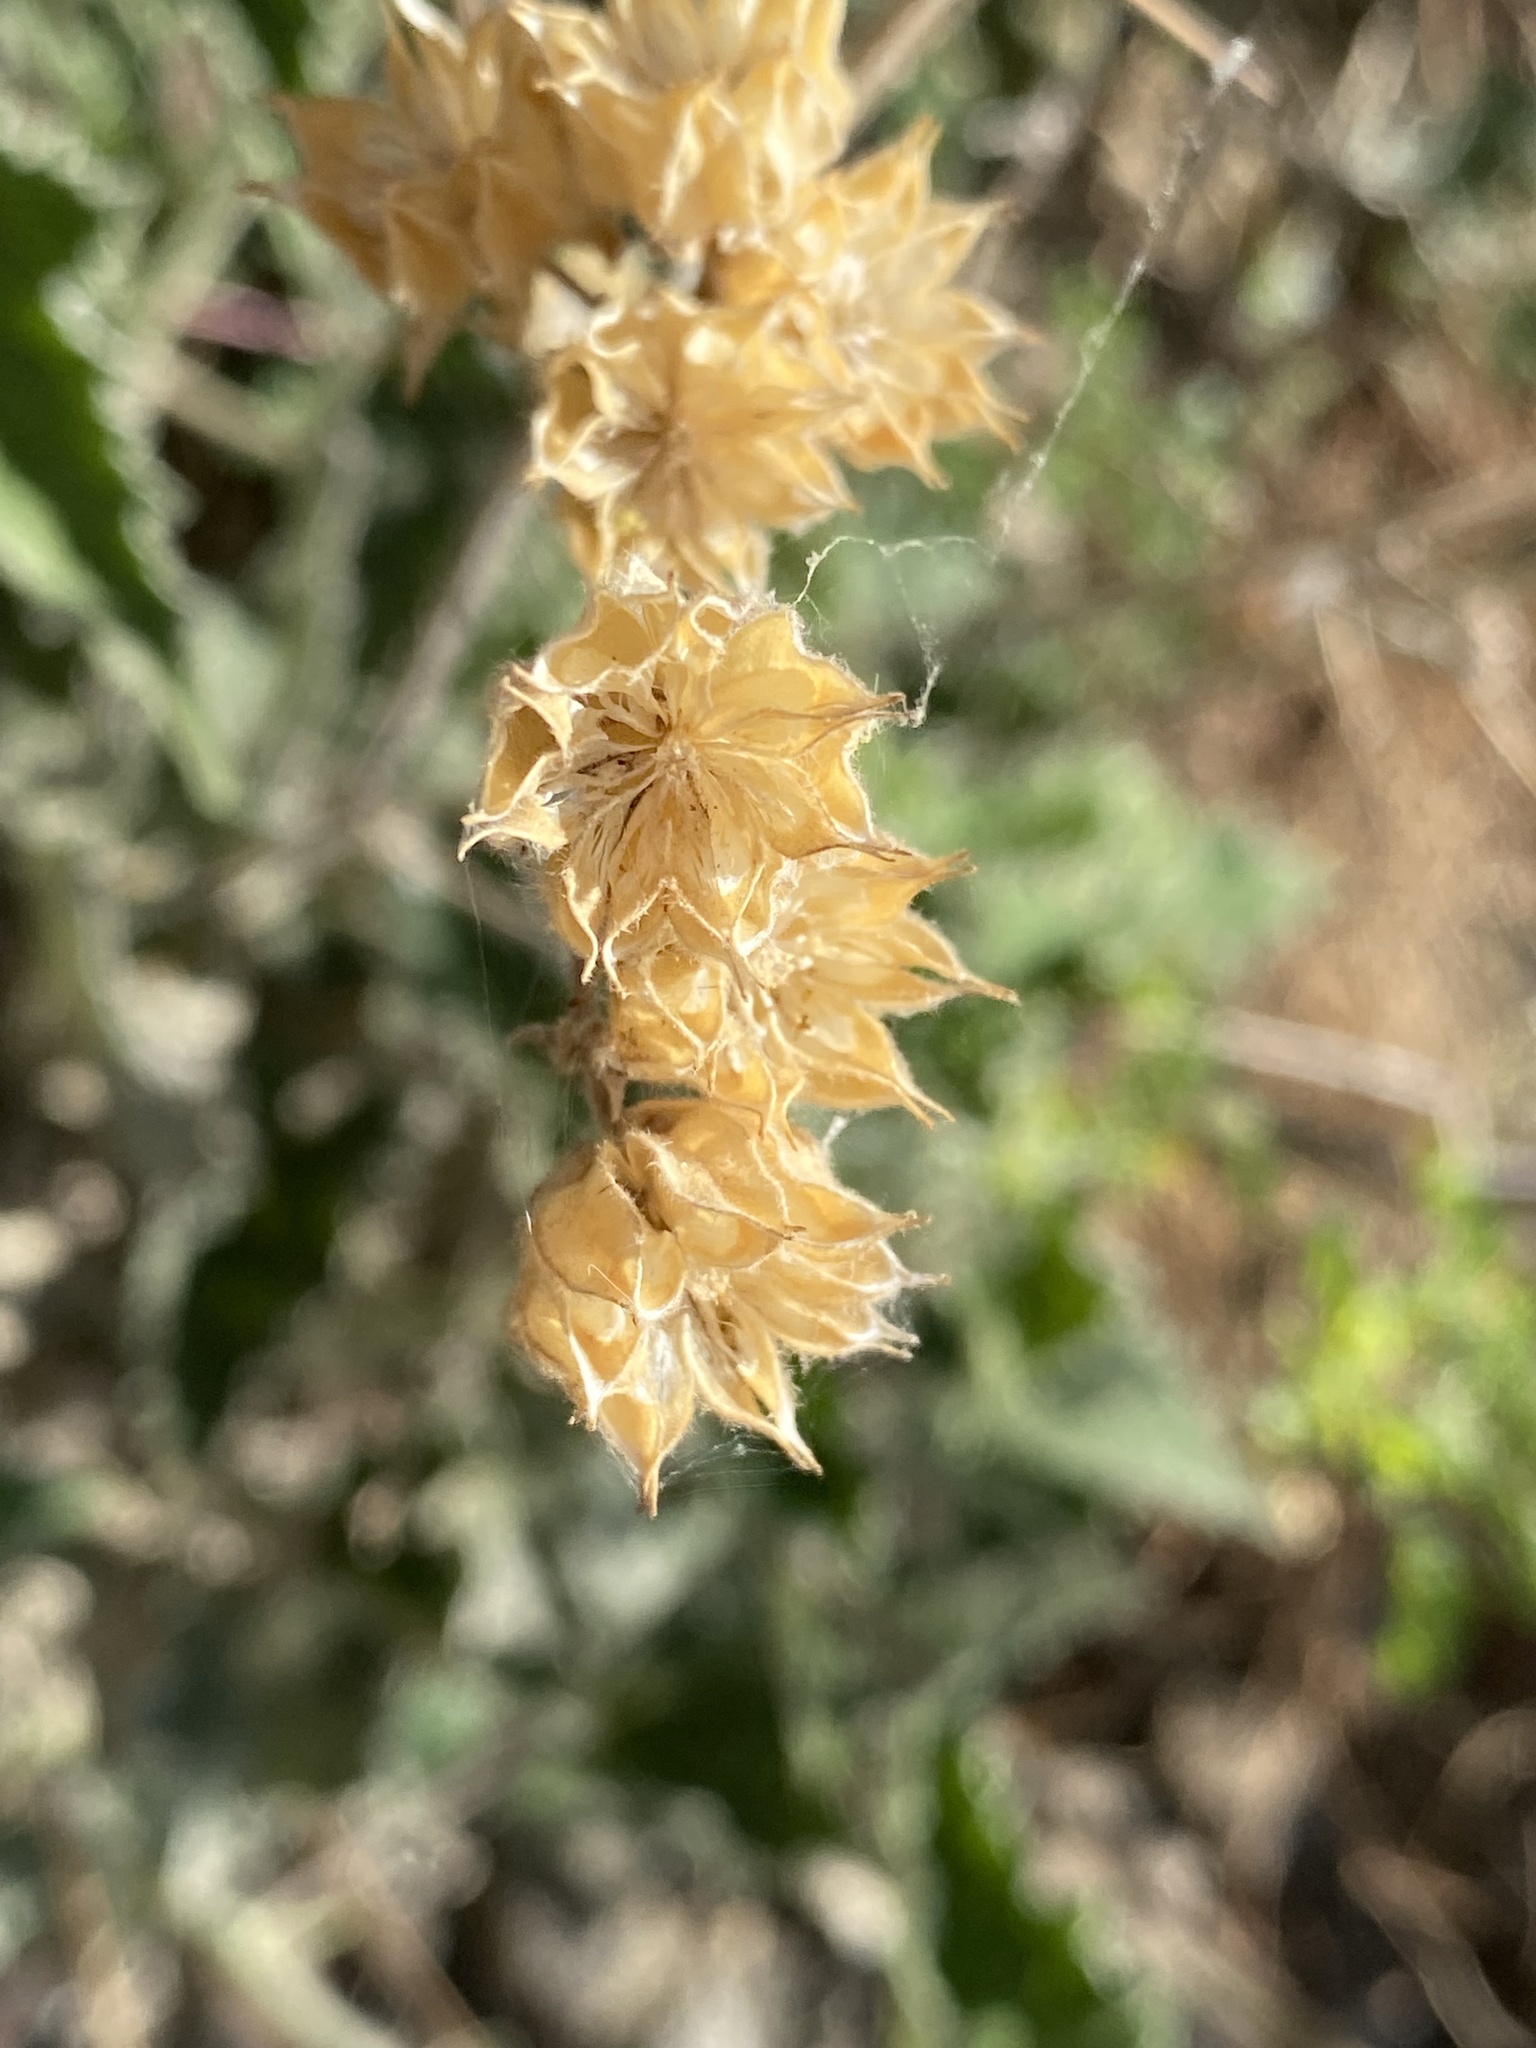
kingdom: Plantae
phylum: Tracheophyta
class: Magnoliopsida
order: Malvales
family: Malvaceae
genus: Abutilon
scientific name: Abutilon parishii
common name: Parish's abutilon
